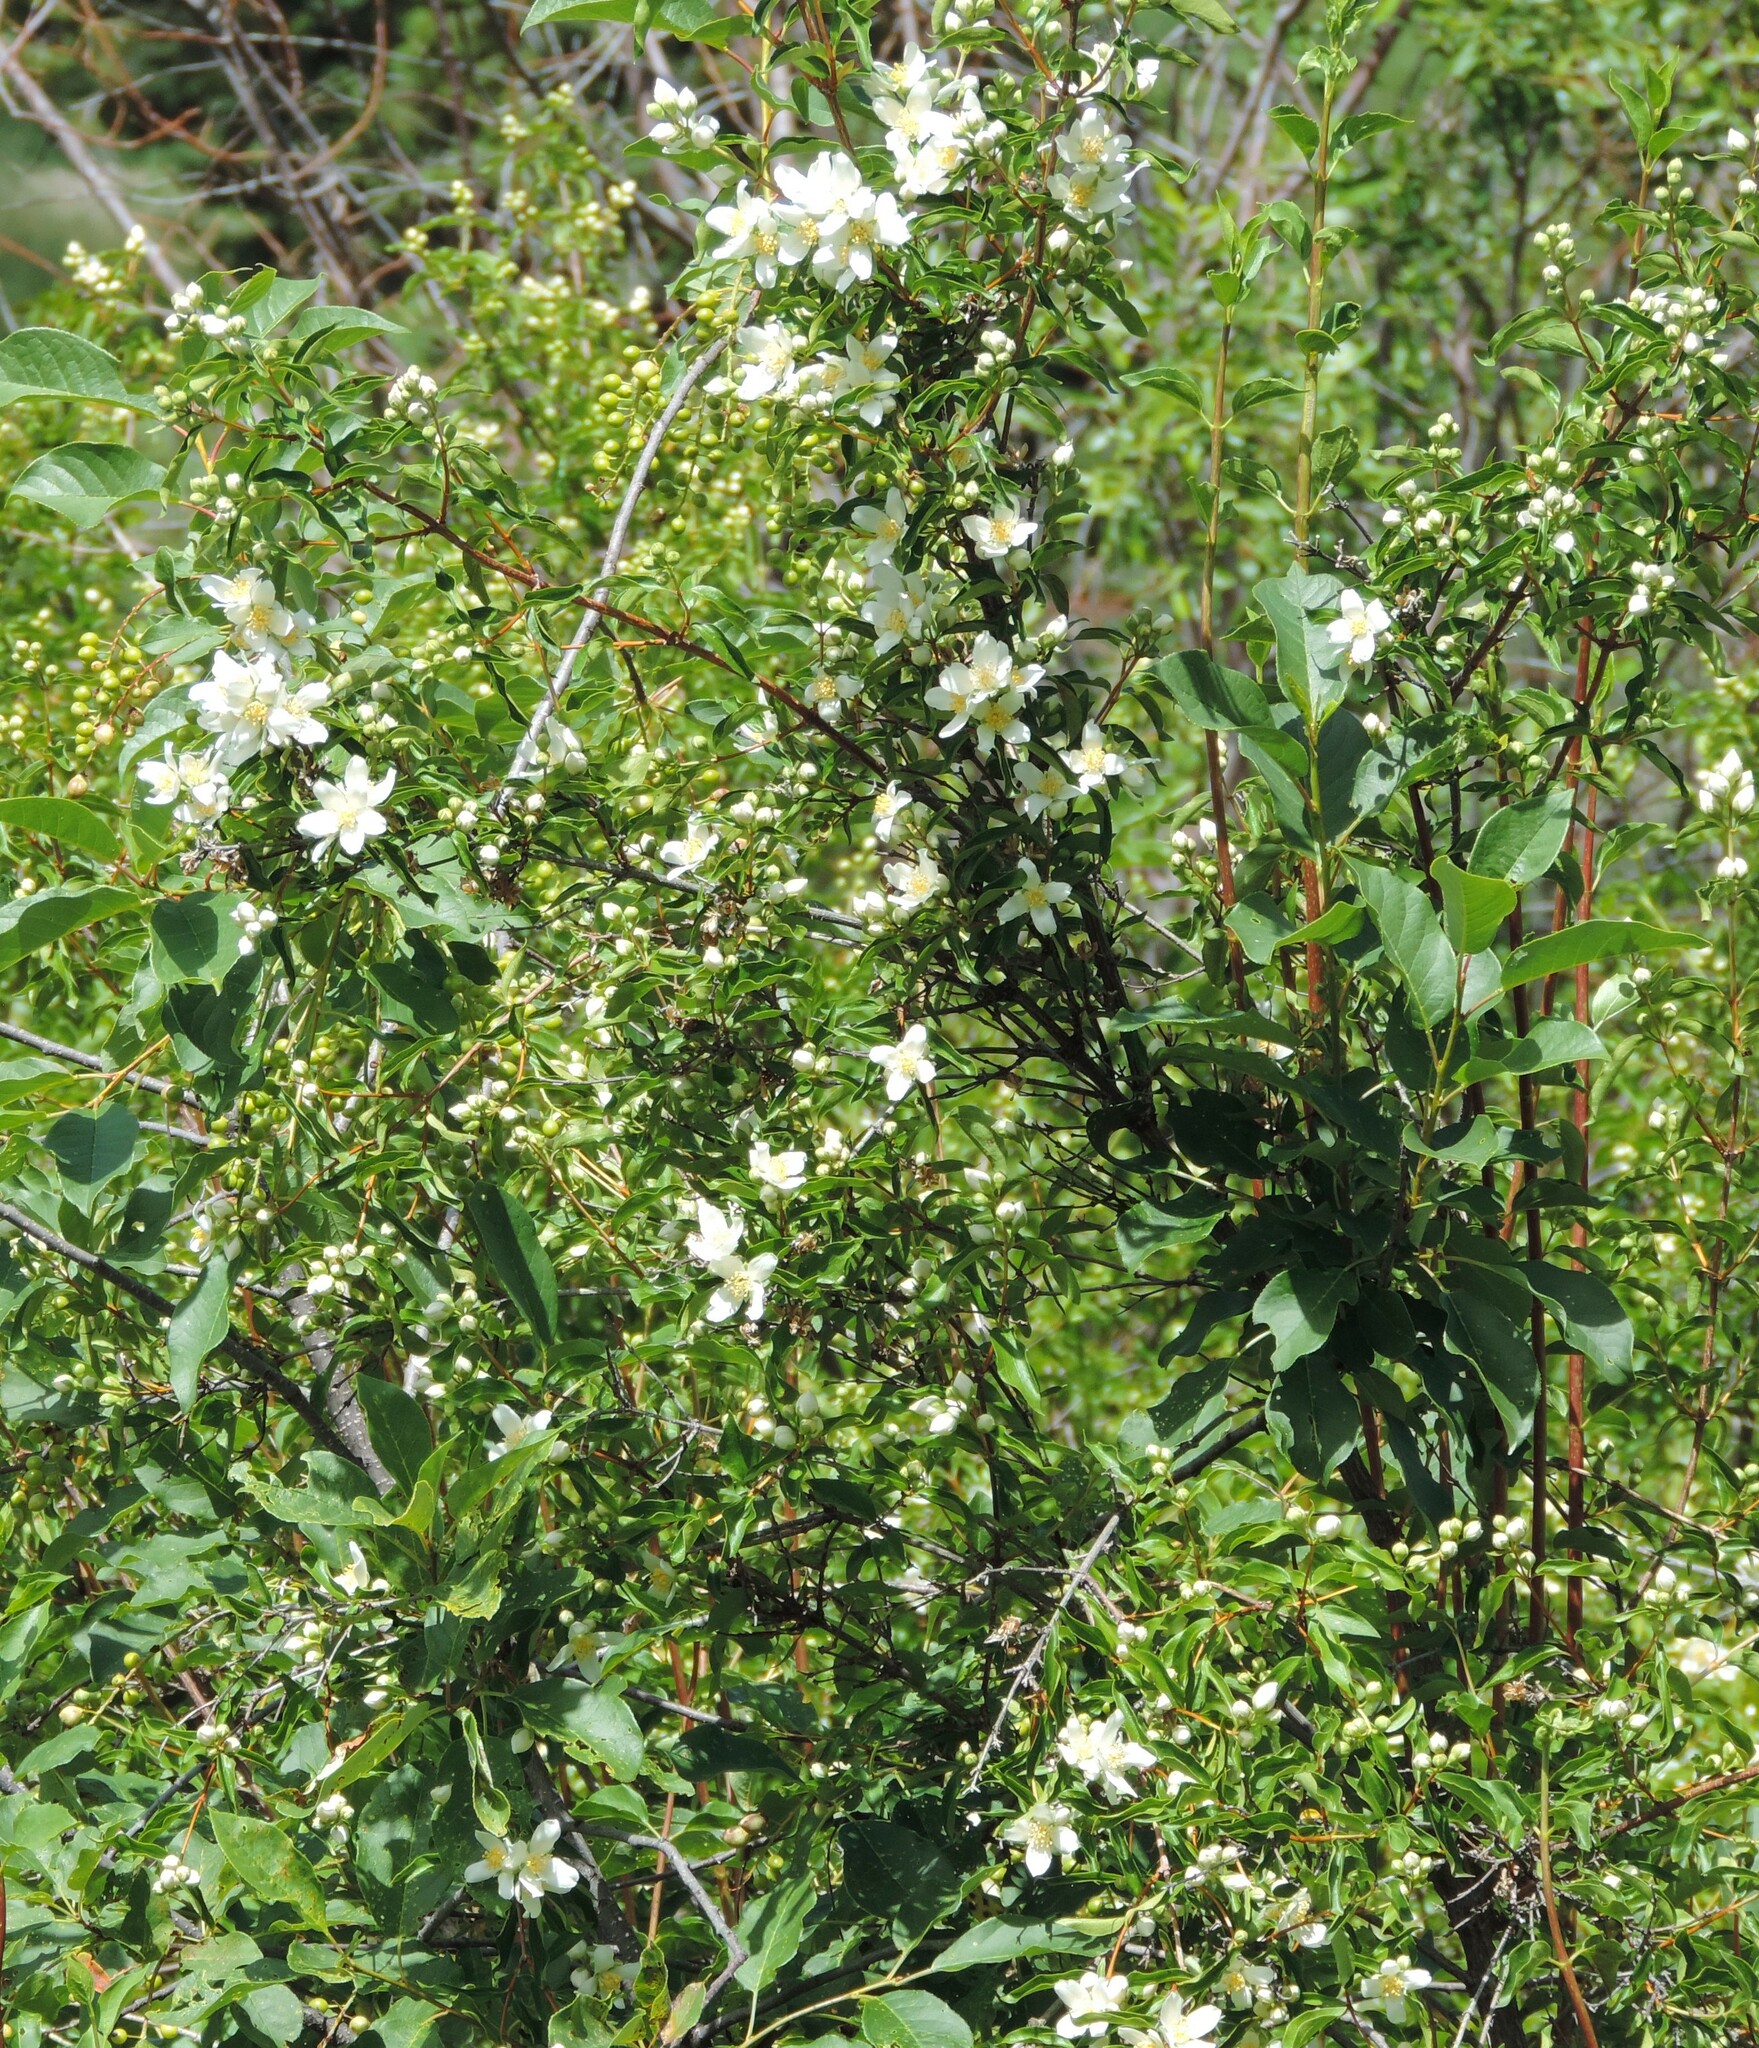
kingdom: Plantae
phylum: Tracheophyta
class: Magnoliopsida
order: Cornales
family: Hydrangeaceae
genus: Philadelphus
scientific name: Philadelphus lewisii
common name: Lewis's mock orange
